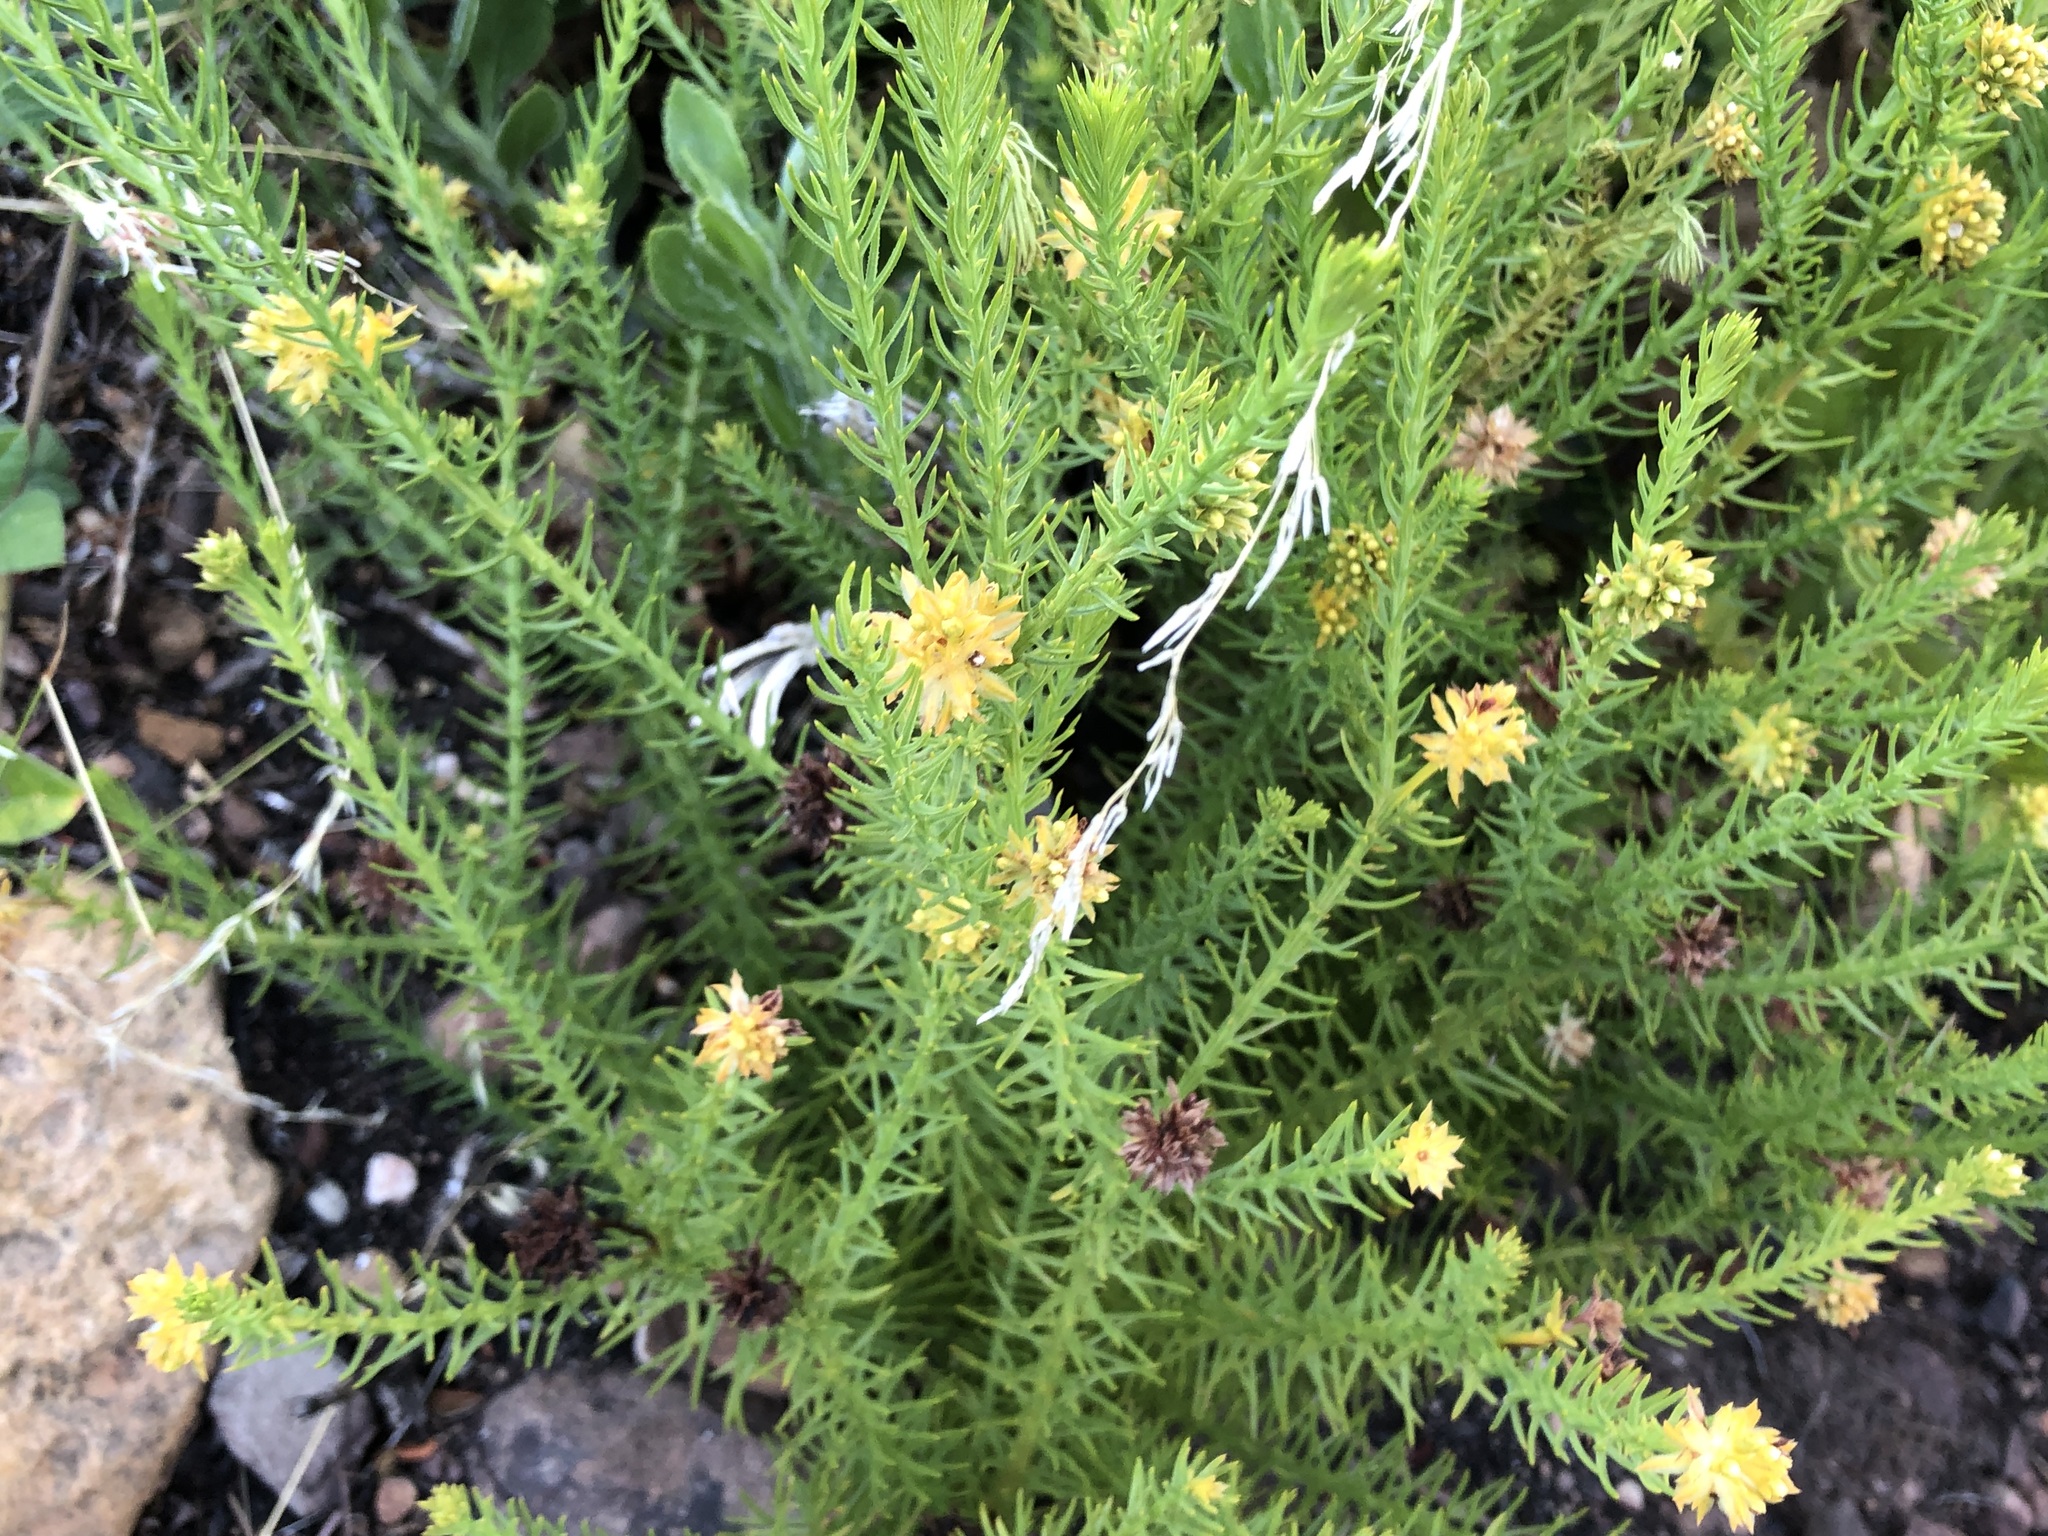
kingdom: Plantae
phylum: Tracheophyta
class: Magnoliopsida
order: Santalales
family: Thesiaceae
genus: Thesium
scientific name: Thesium scabrum
